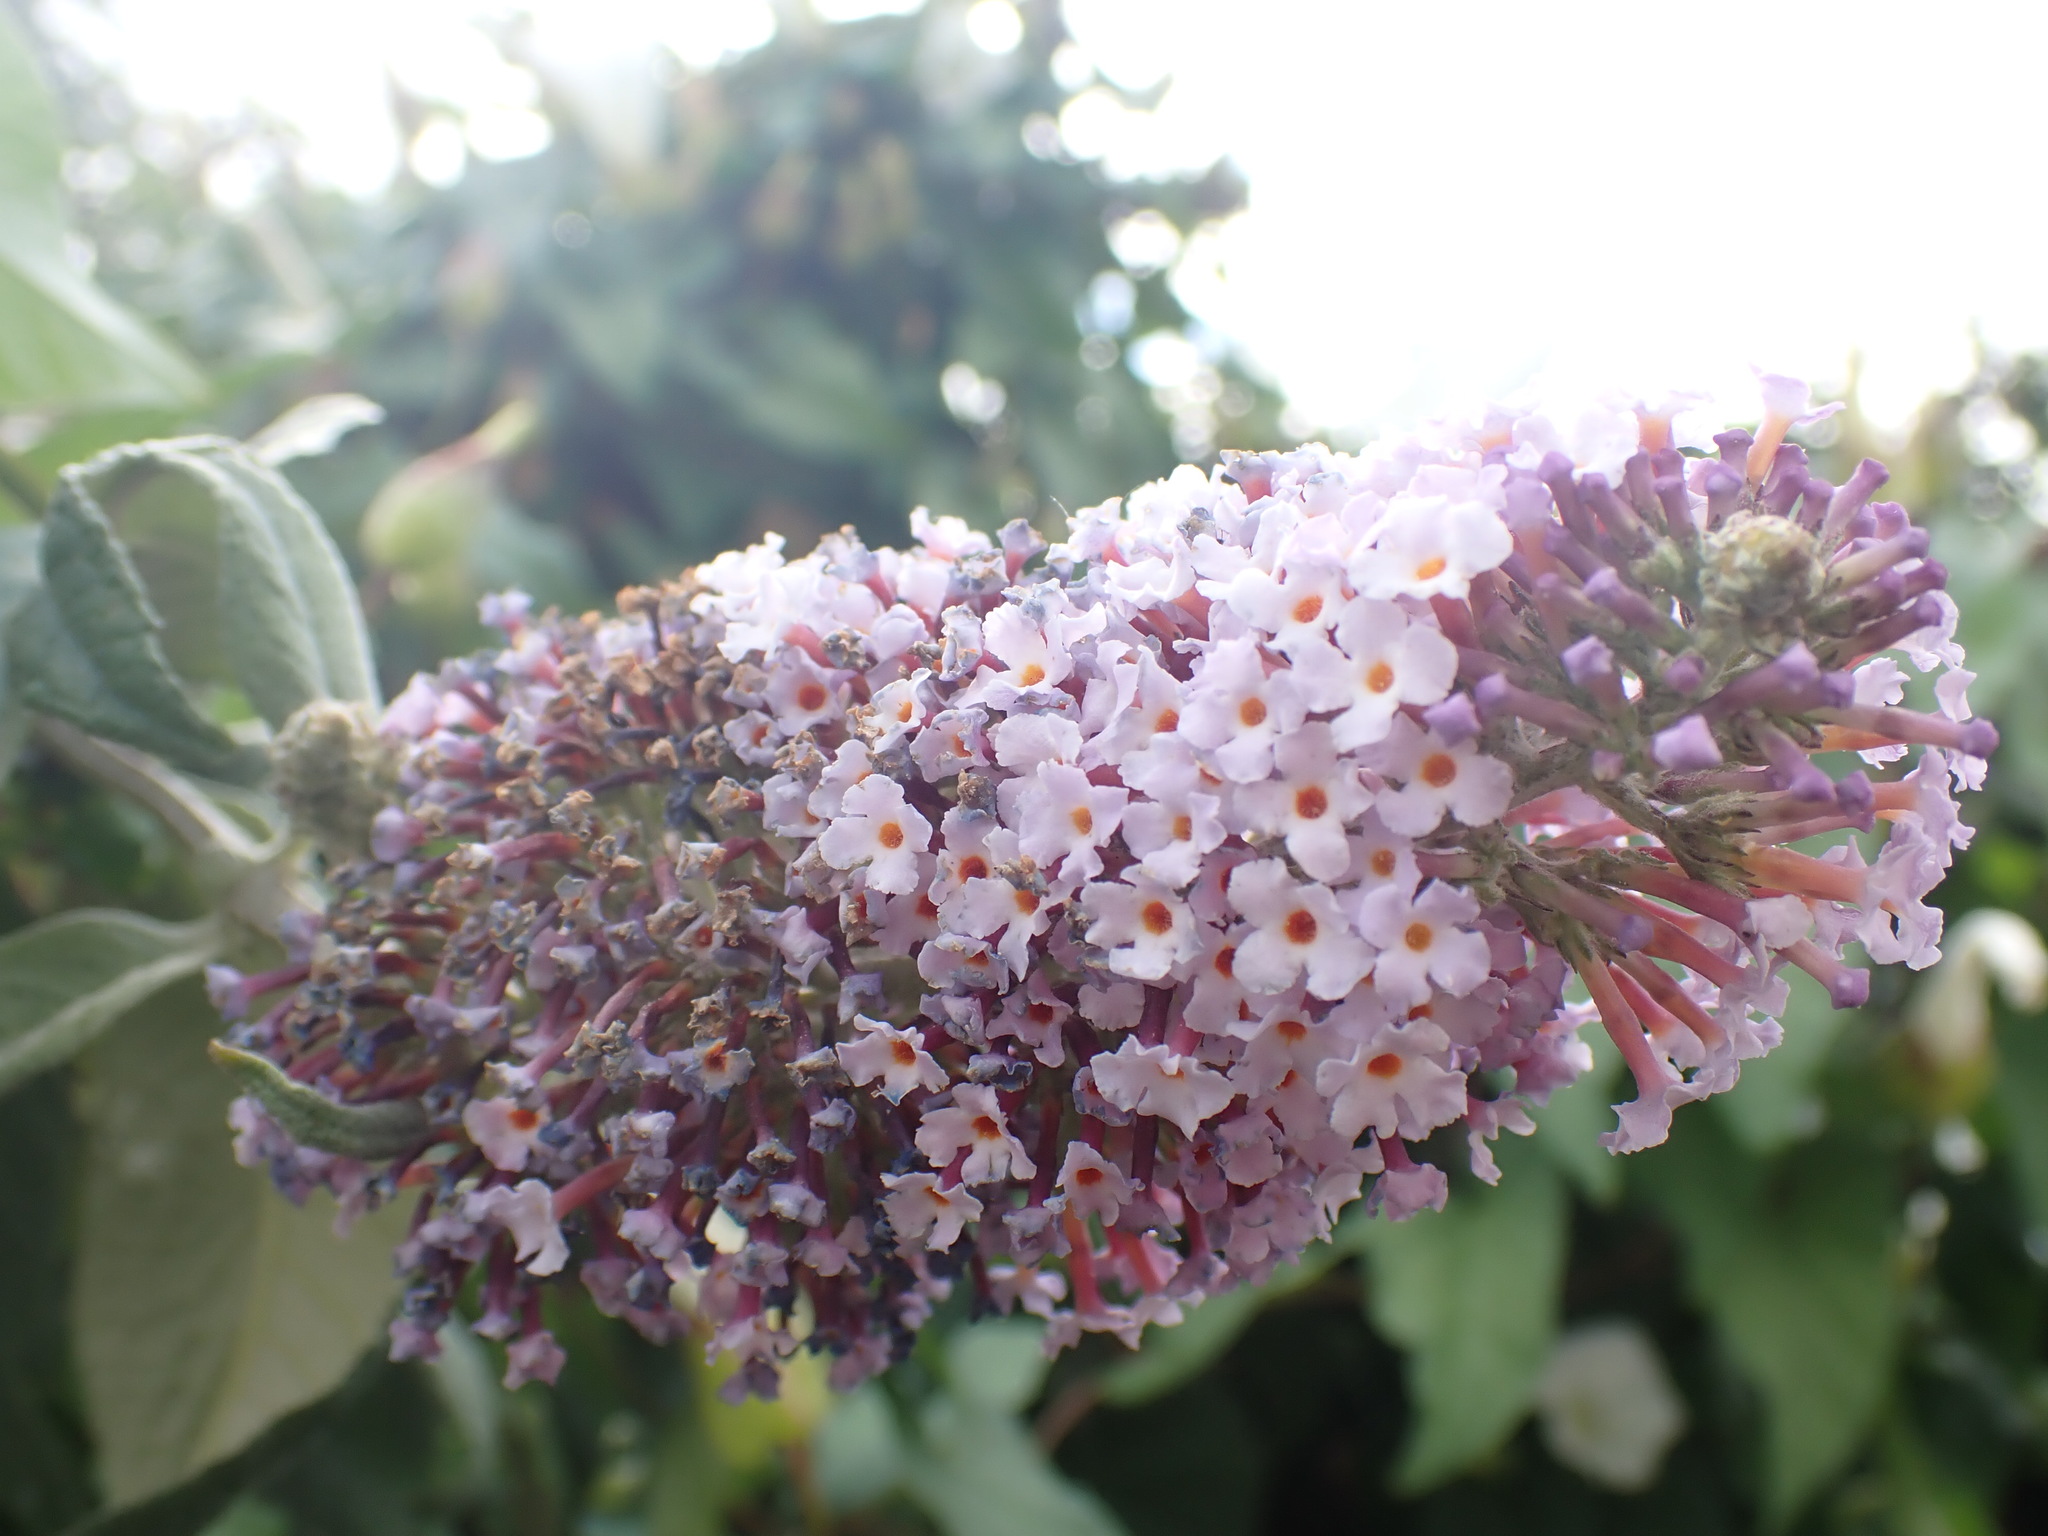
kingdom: Plantae
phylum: Tracheophyta
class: Magnoliopsida
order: Lamiales
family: Scrophulariaceae
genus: Buddleja
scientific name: Buddleja davidii
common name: Butterfly-bush
